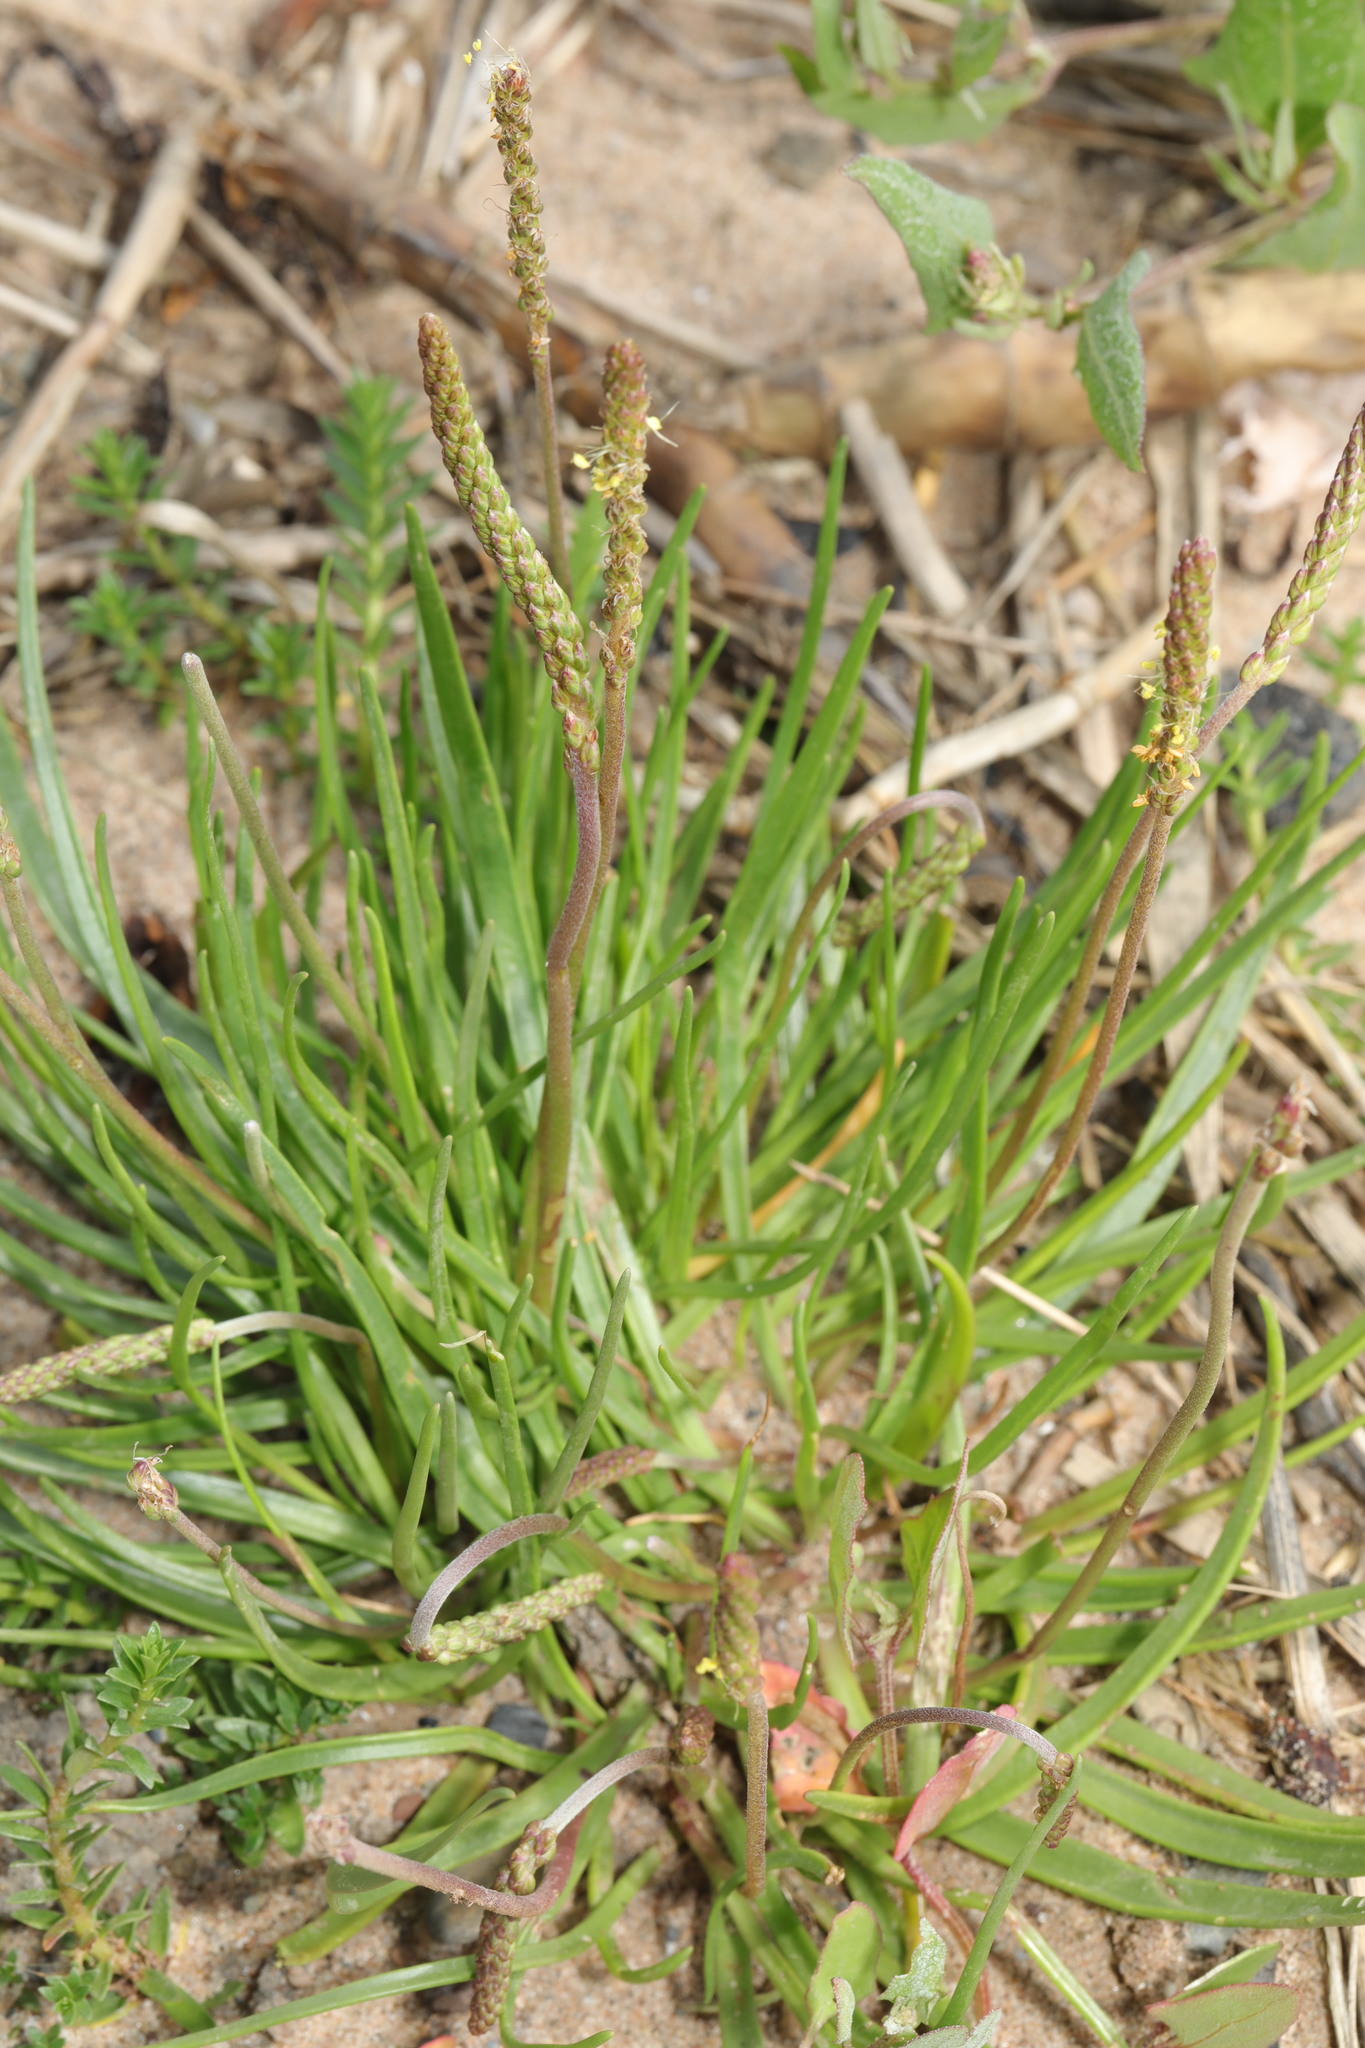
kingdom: Plantae
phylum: Tracheophyta
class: Magnoliopsida
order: Lamiales
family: Plantaginaceae
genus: Plantago
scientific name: Plantago maritima
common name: Sea plantain
